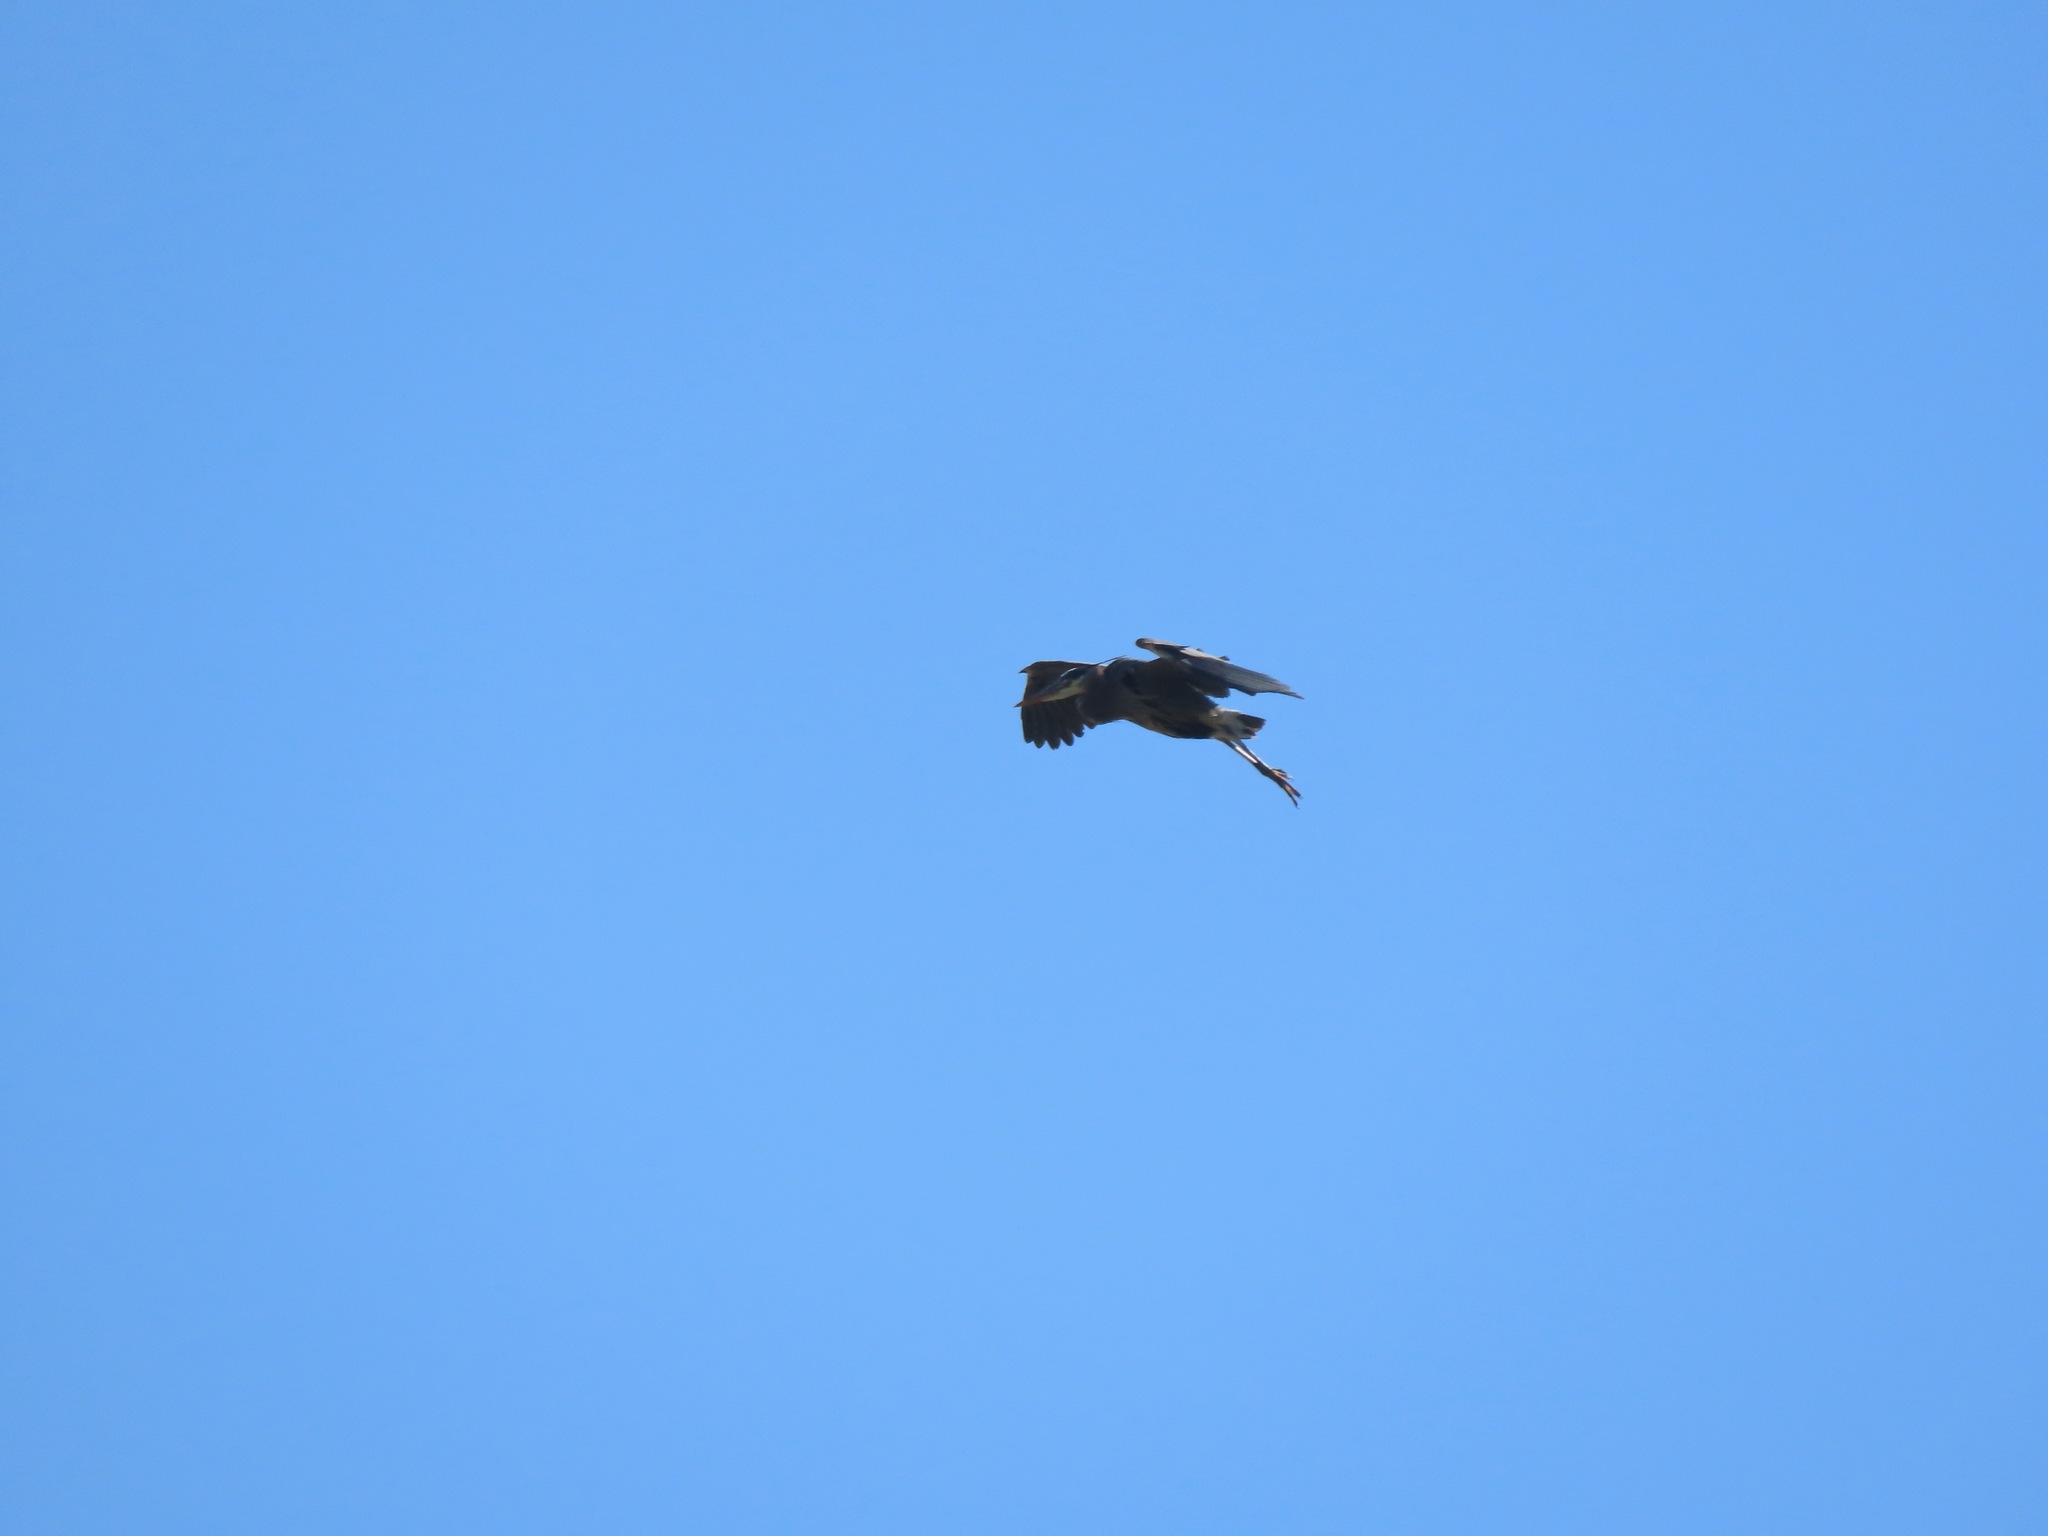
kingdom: Animalia
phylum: Chordata
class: Aves
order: Pelecaniformes
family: Ardeidae
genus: Ardea
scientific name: Ardea herodias
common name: Great blue heron
